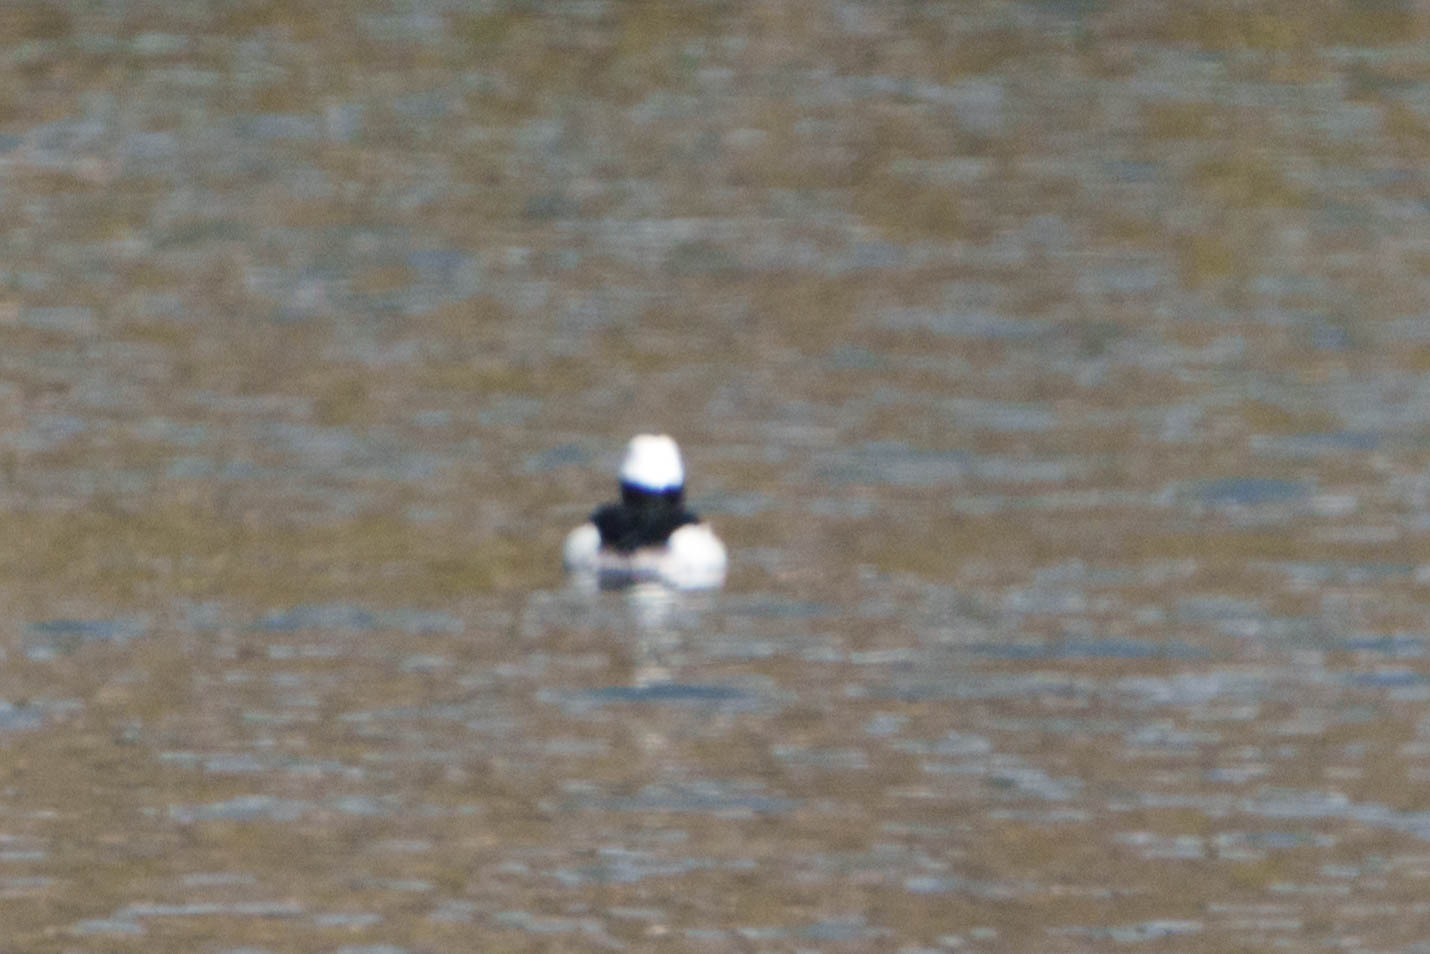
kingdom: Animalia
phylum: Chordata
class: Aves
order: Anseriformes
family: Anatidae
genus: Bucephala
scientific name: Bucephala albeola
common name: Bufflehead
